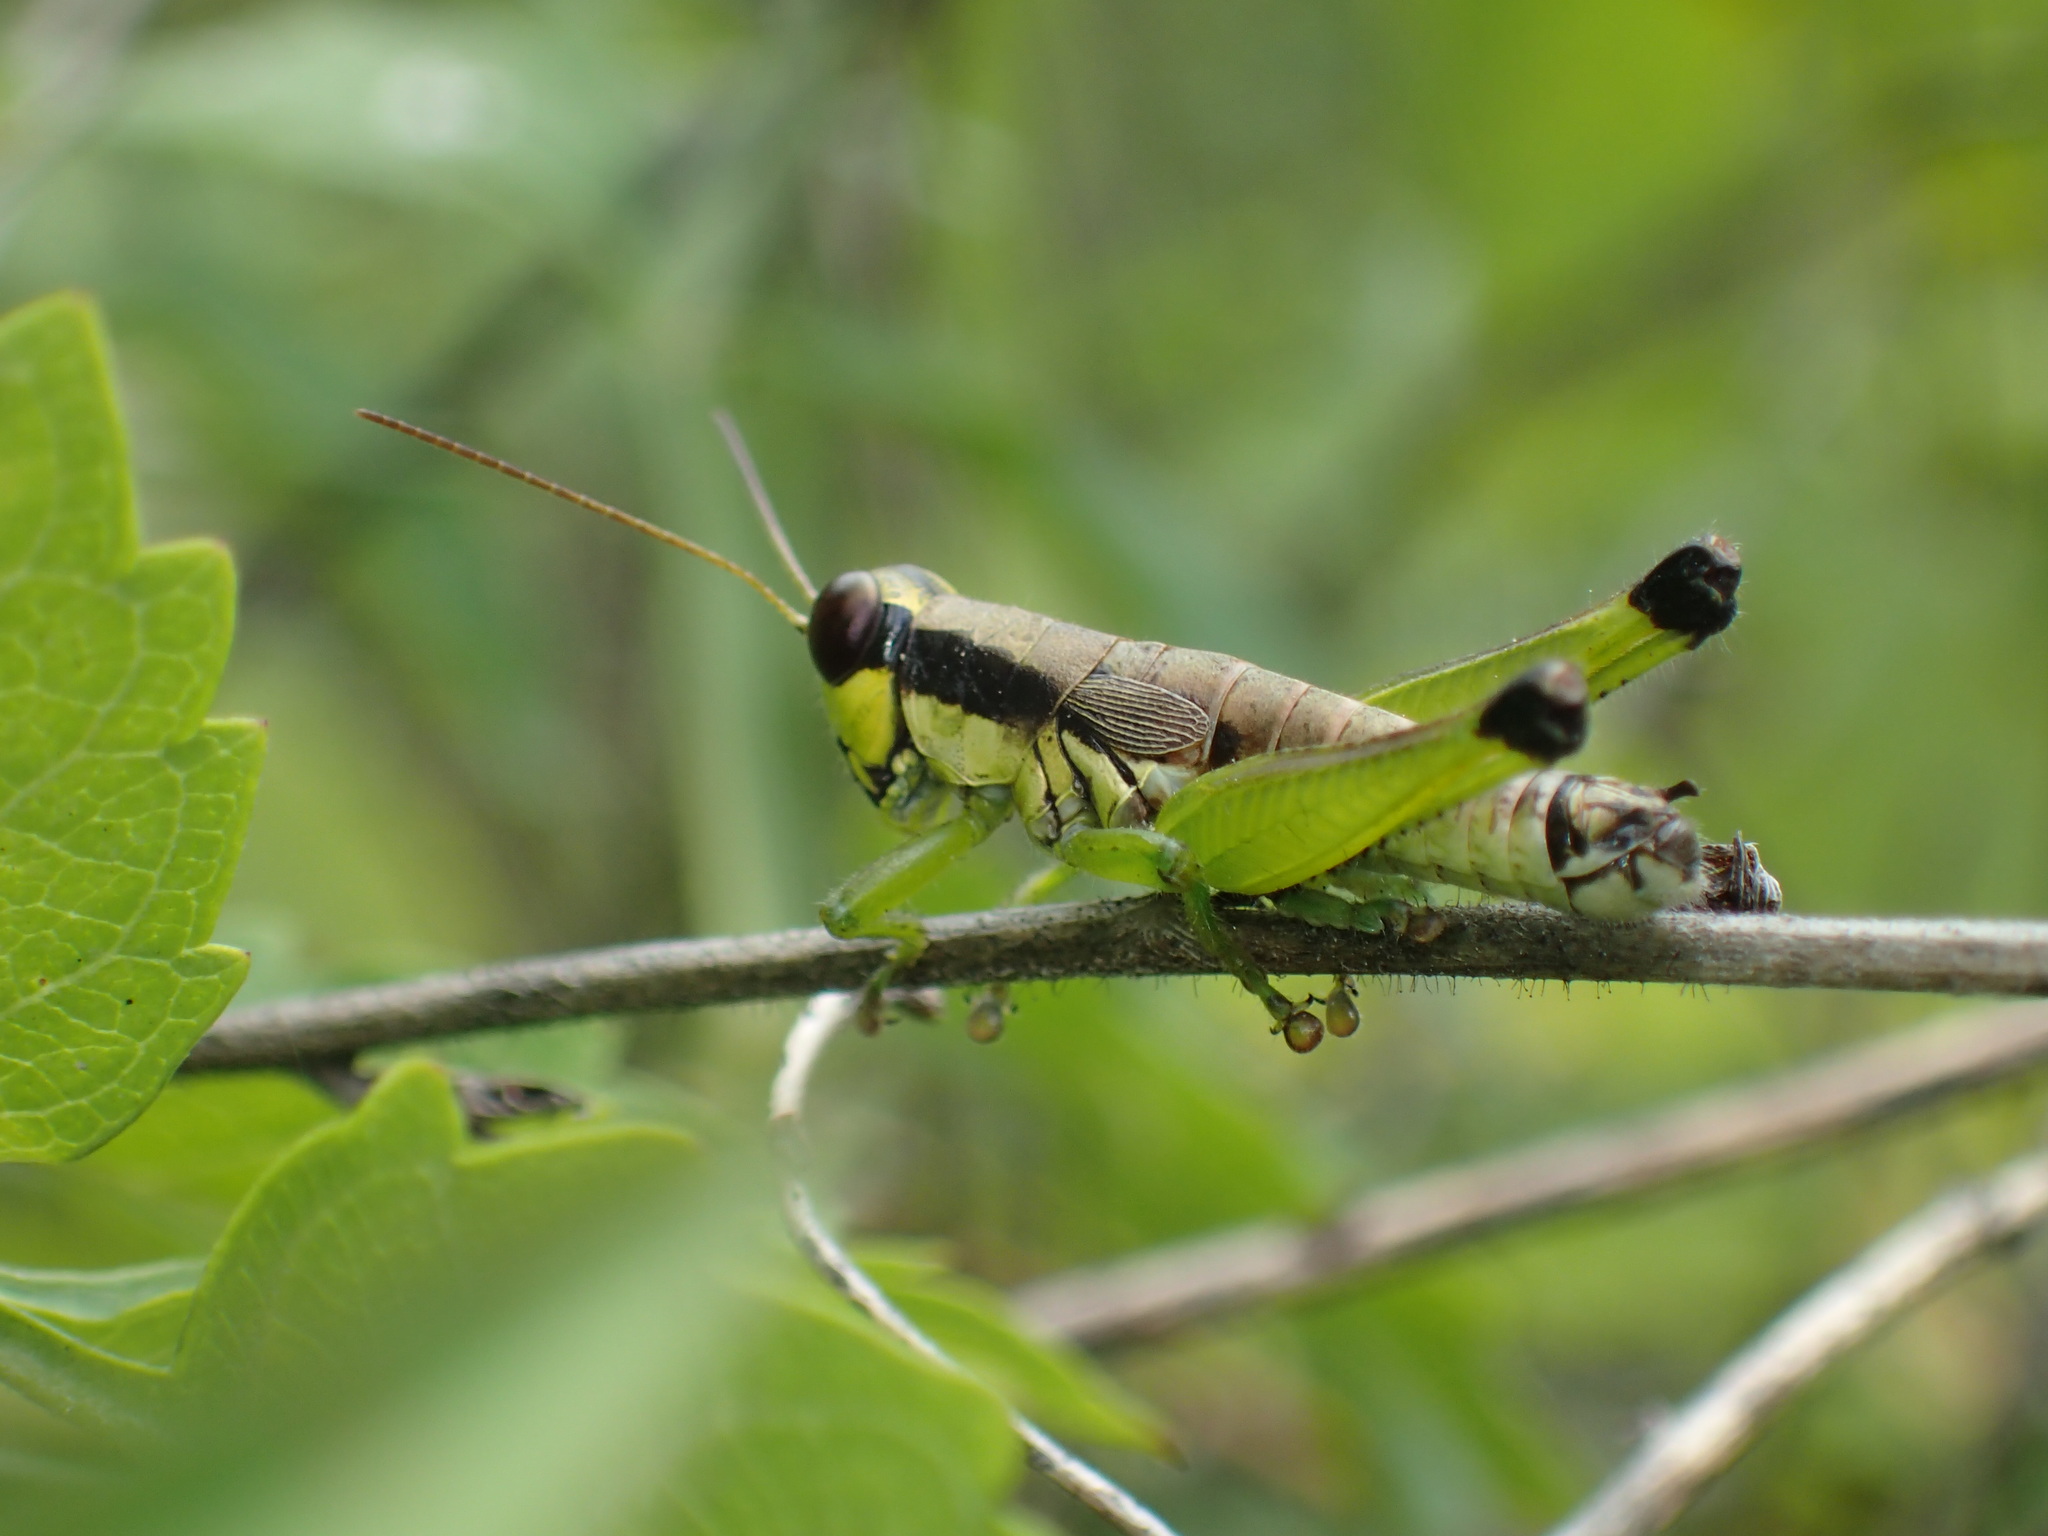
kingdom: Animalia
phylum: Arthropoda
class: Insecta
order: Orthoptera
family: Acrididae
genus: Melanoplus
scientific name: Melanoplus gracilis
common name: Graceful narrow-winged locust
